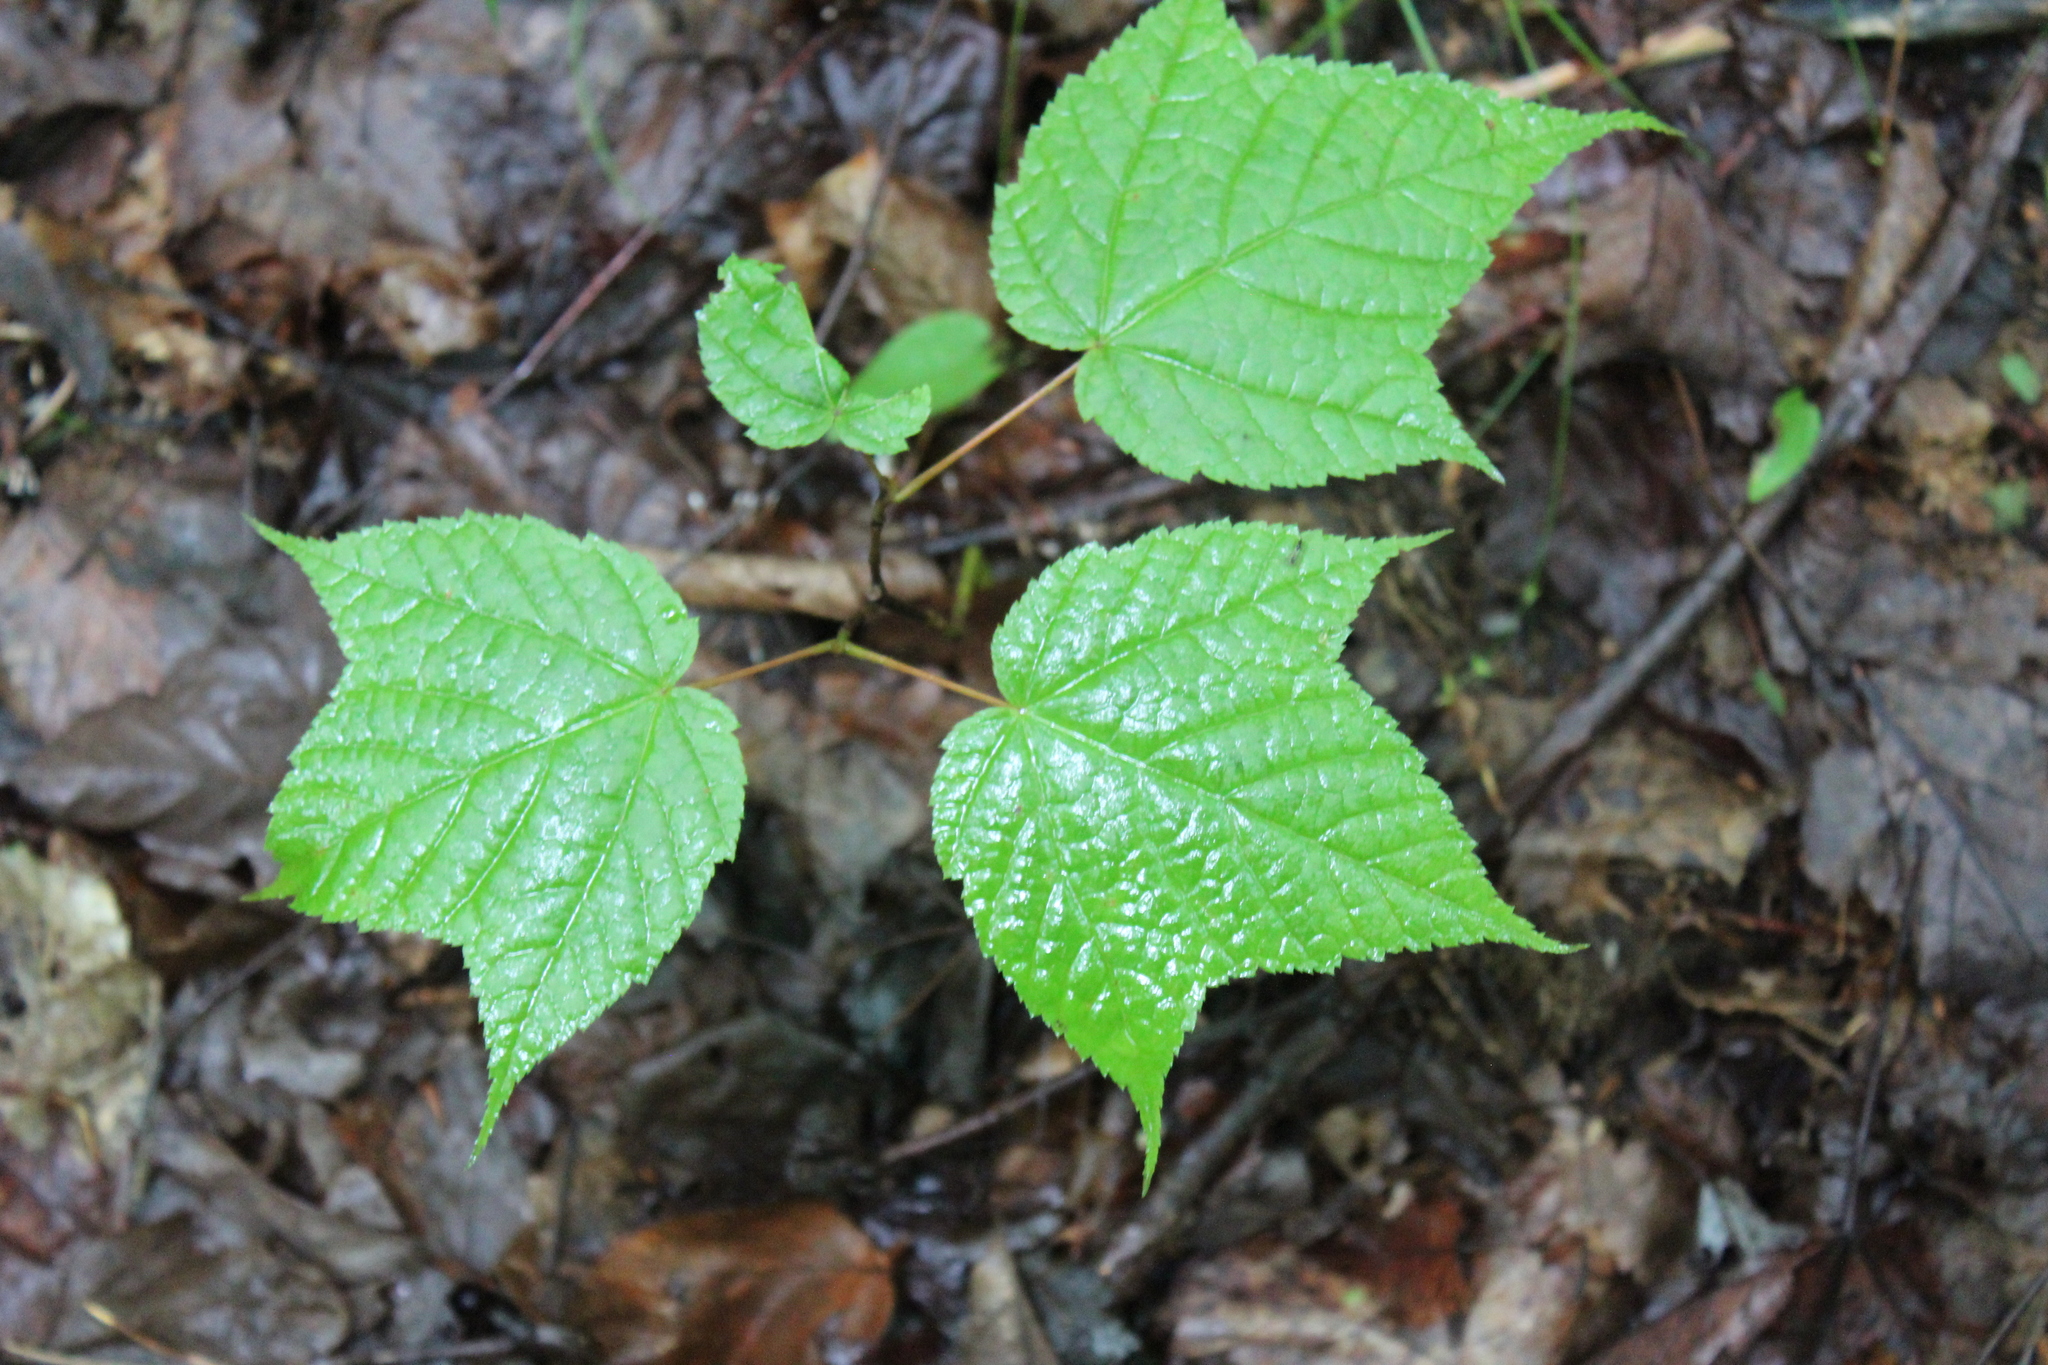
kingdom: Plantae
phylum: Tracheophyta
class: Magnoliopsida
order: Sapindales
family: Sapindaceae
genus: Acer
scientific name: Acer pensylvanicum
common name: Moosewood
